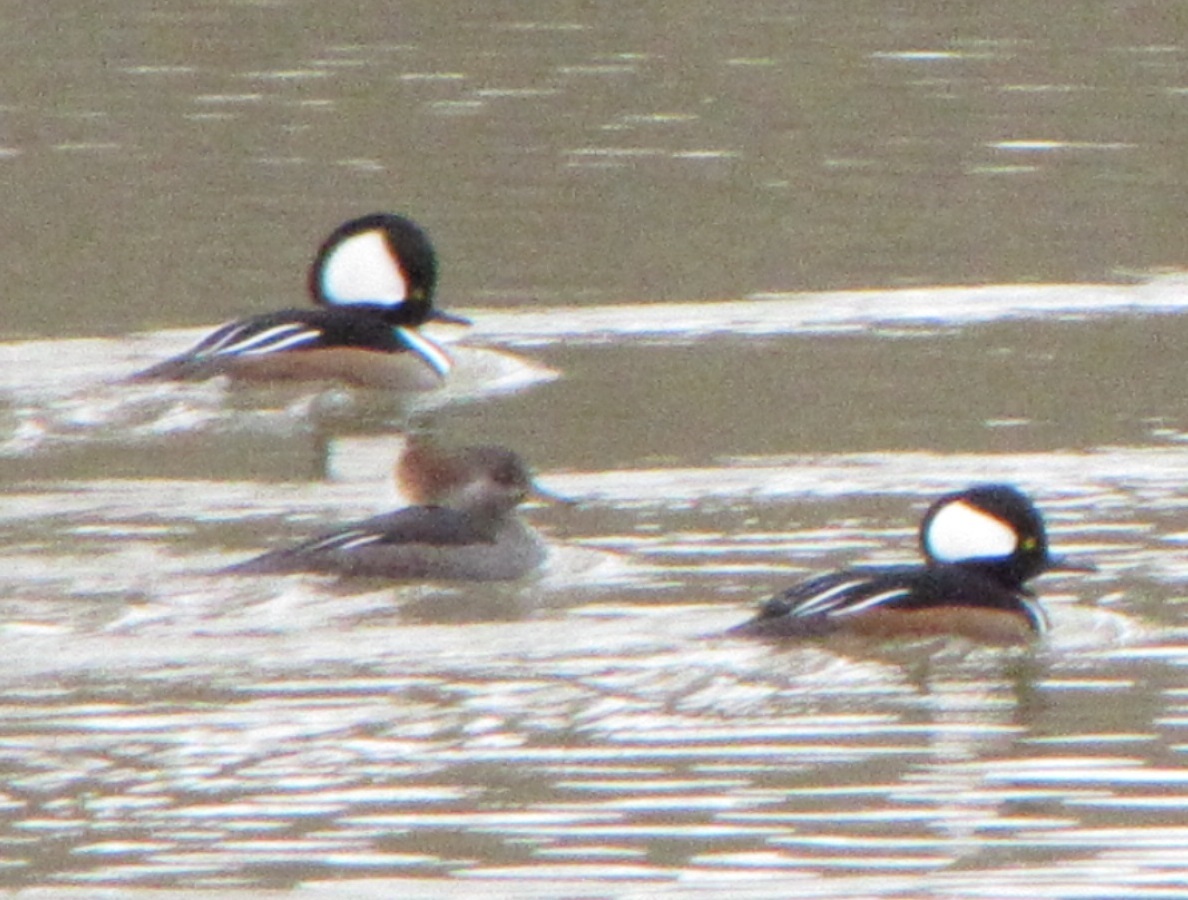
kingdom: Animalia
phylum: Chordata
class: Aves
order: Anseriformes
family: Anatidae
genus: Lophodytes
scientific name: Lophodytes cucullatus
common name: Hooded merganser
